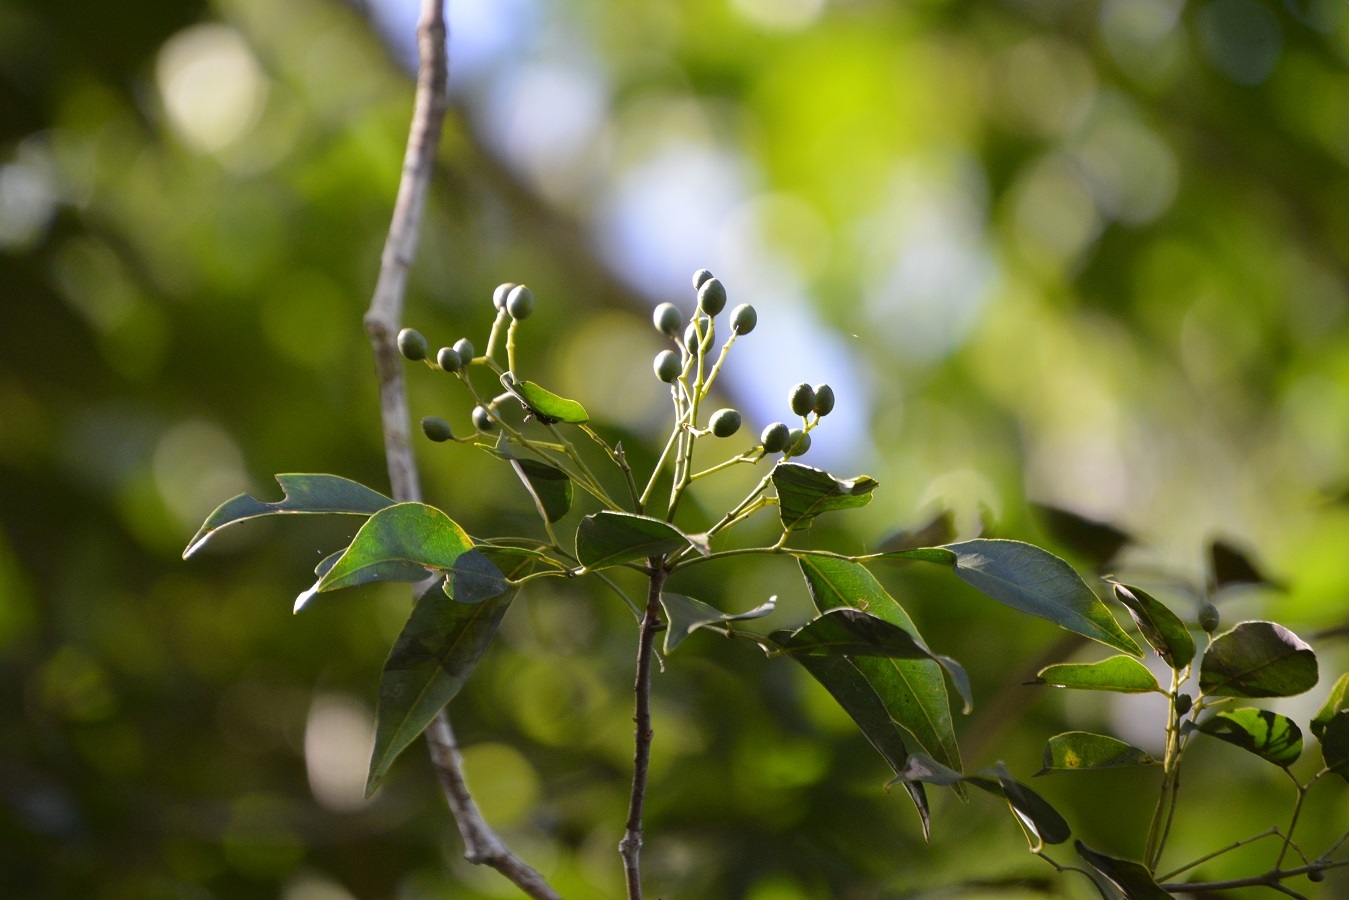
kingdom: Plantae
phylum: Tracheophyta
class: Magnoliopsida
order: Crossosomatales
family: Staphyleaceae
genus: Turpinia
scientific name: Turpinia occidentalis
